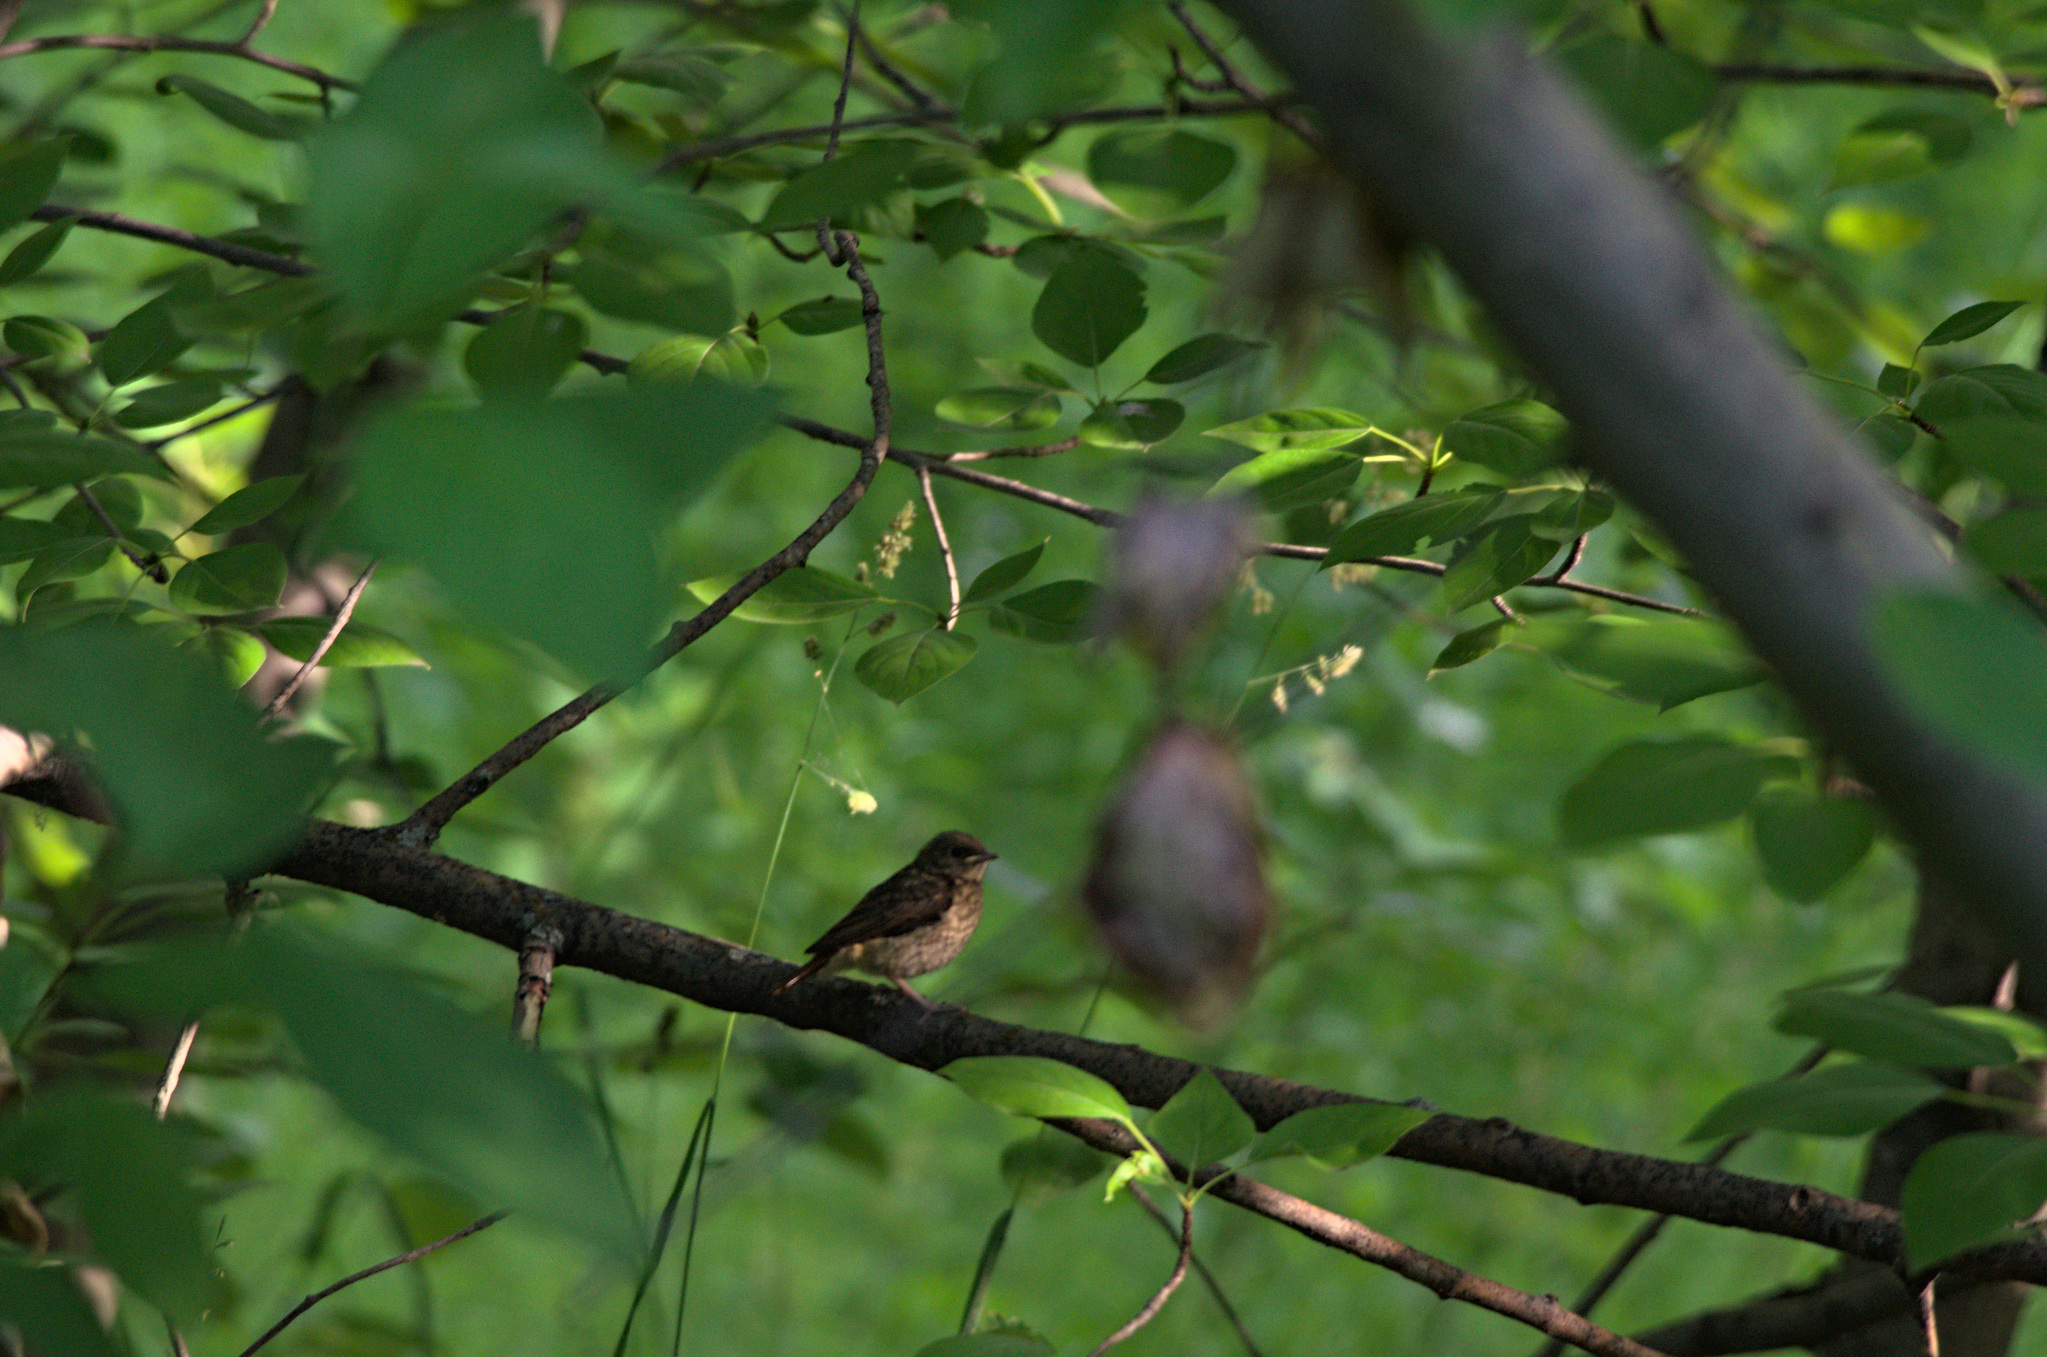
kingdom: Animalia
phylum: Chordata
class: Aves
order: Passeriformes
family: Muscicapidae
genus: Phoenicurus
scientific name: Phoenicurus phoenicurus
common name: Common redstart
